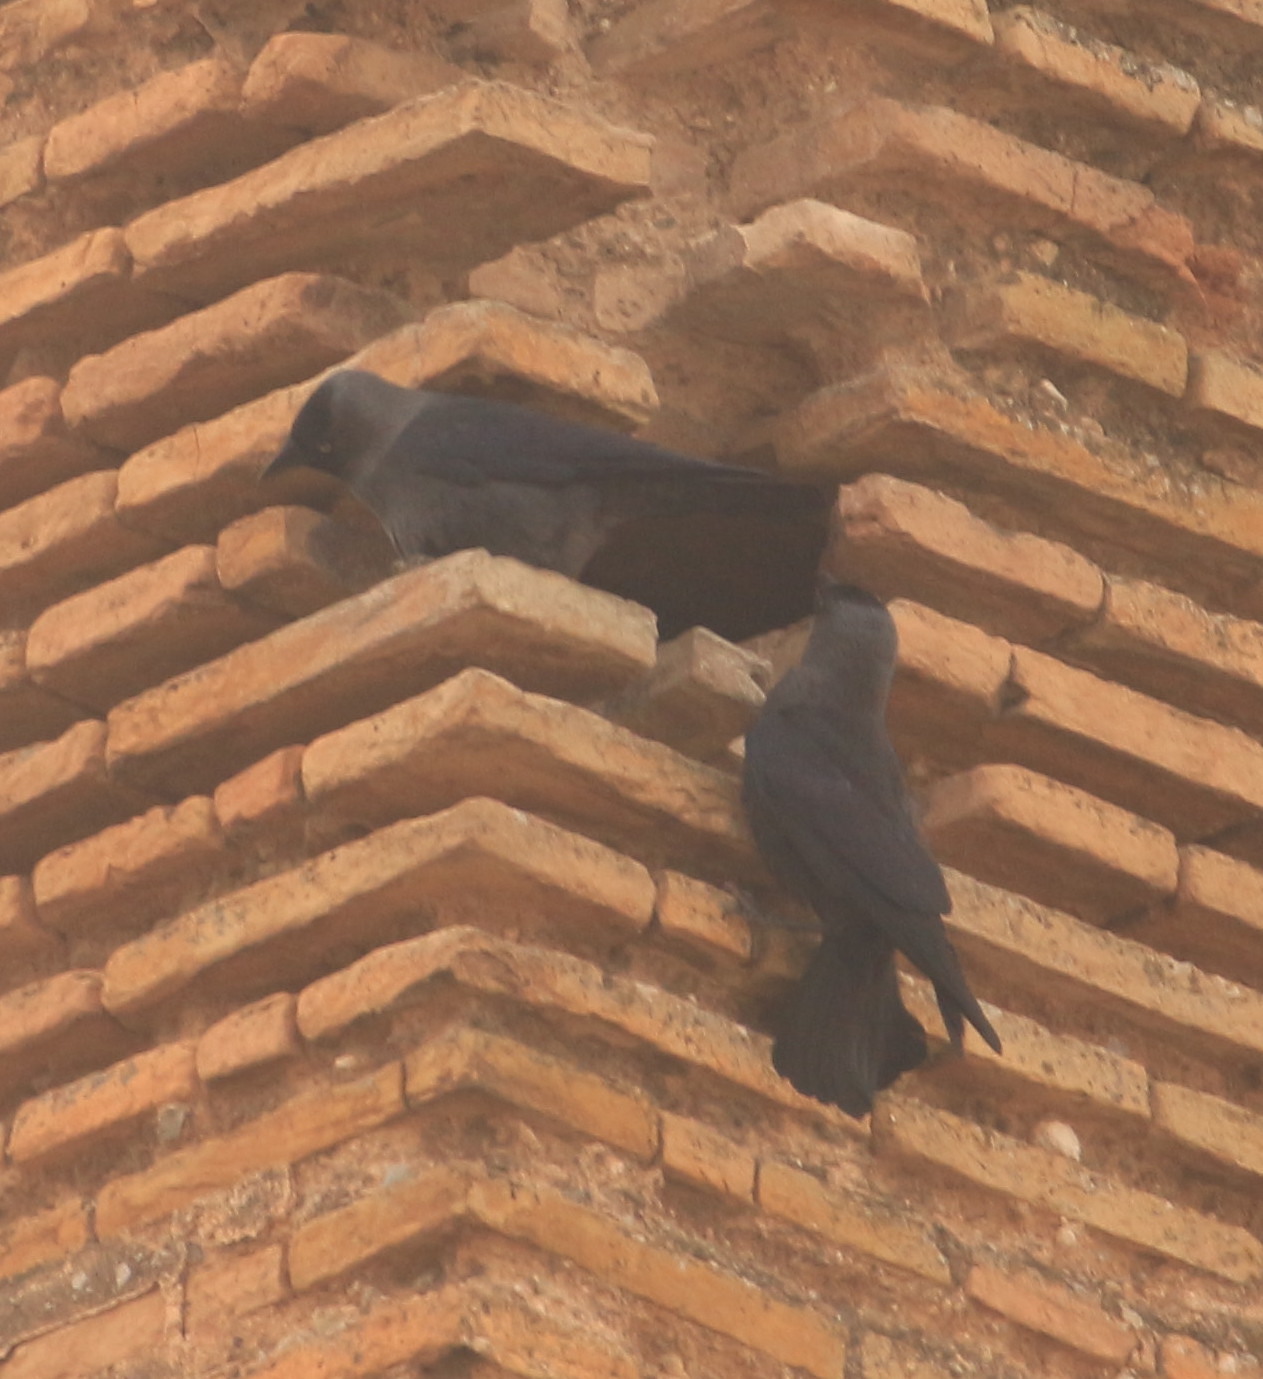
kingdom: Animalia
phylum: Chordata
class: Aves
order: Passeriformes
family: Corvidae
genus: Coloeus
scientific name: Coloeus monedula
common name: Western jackdaw
